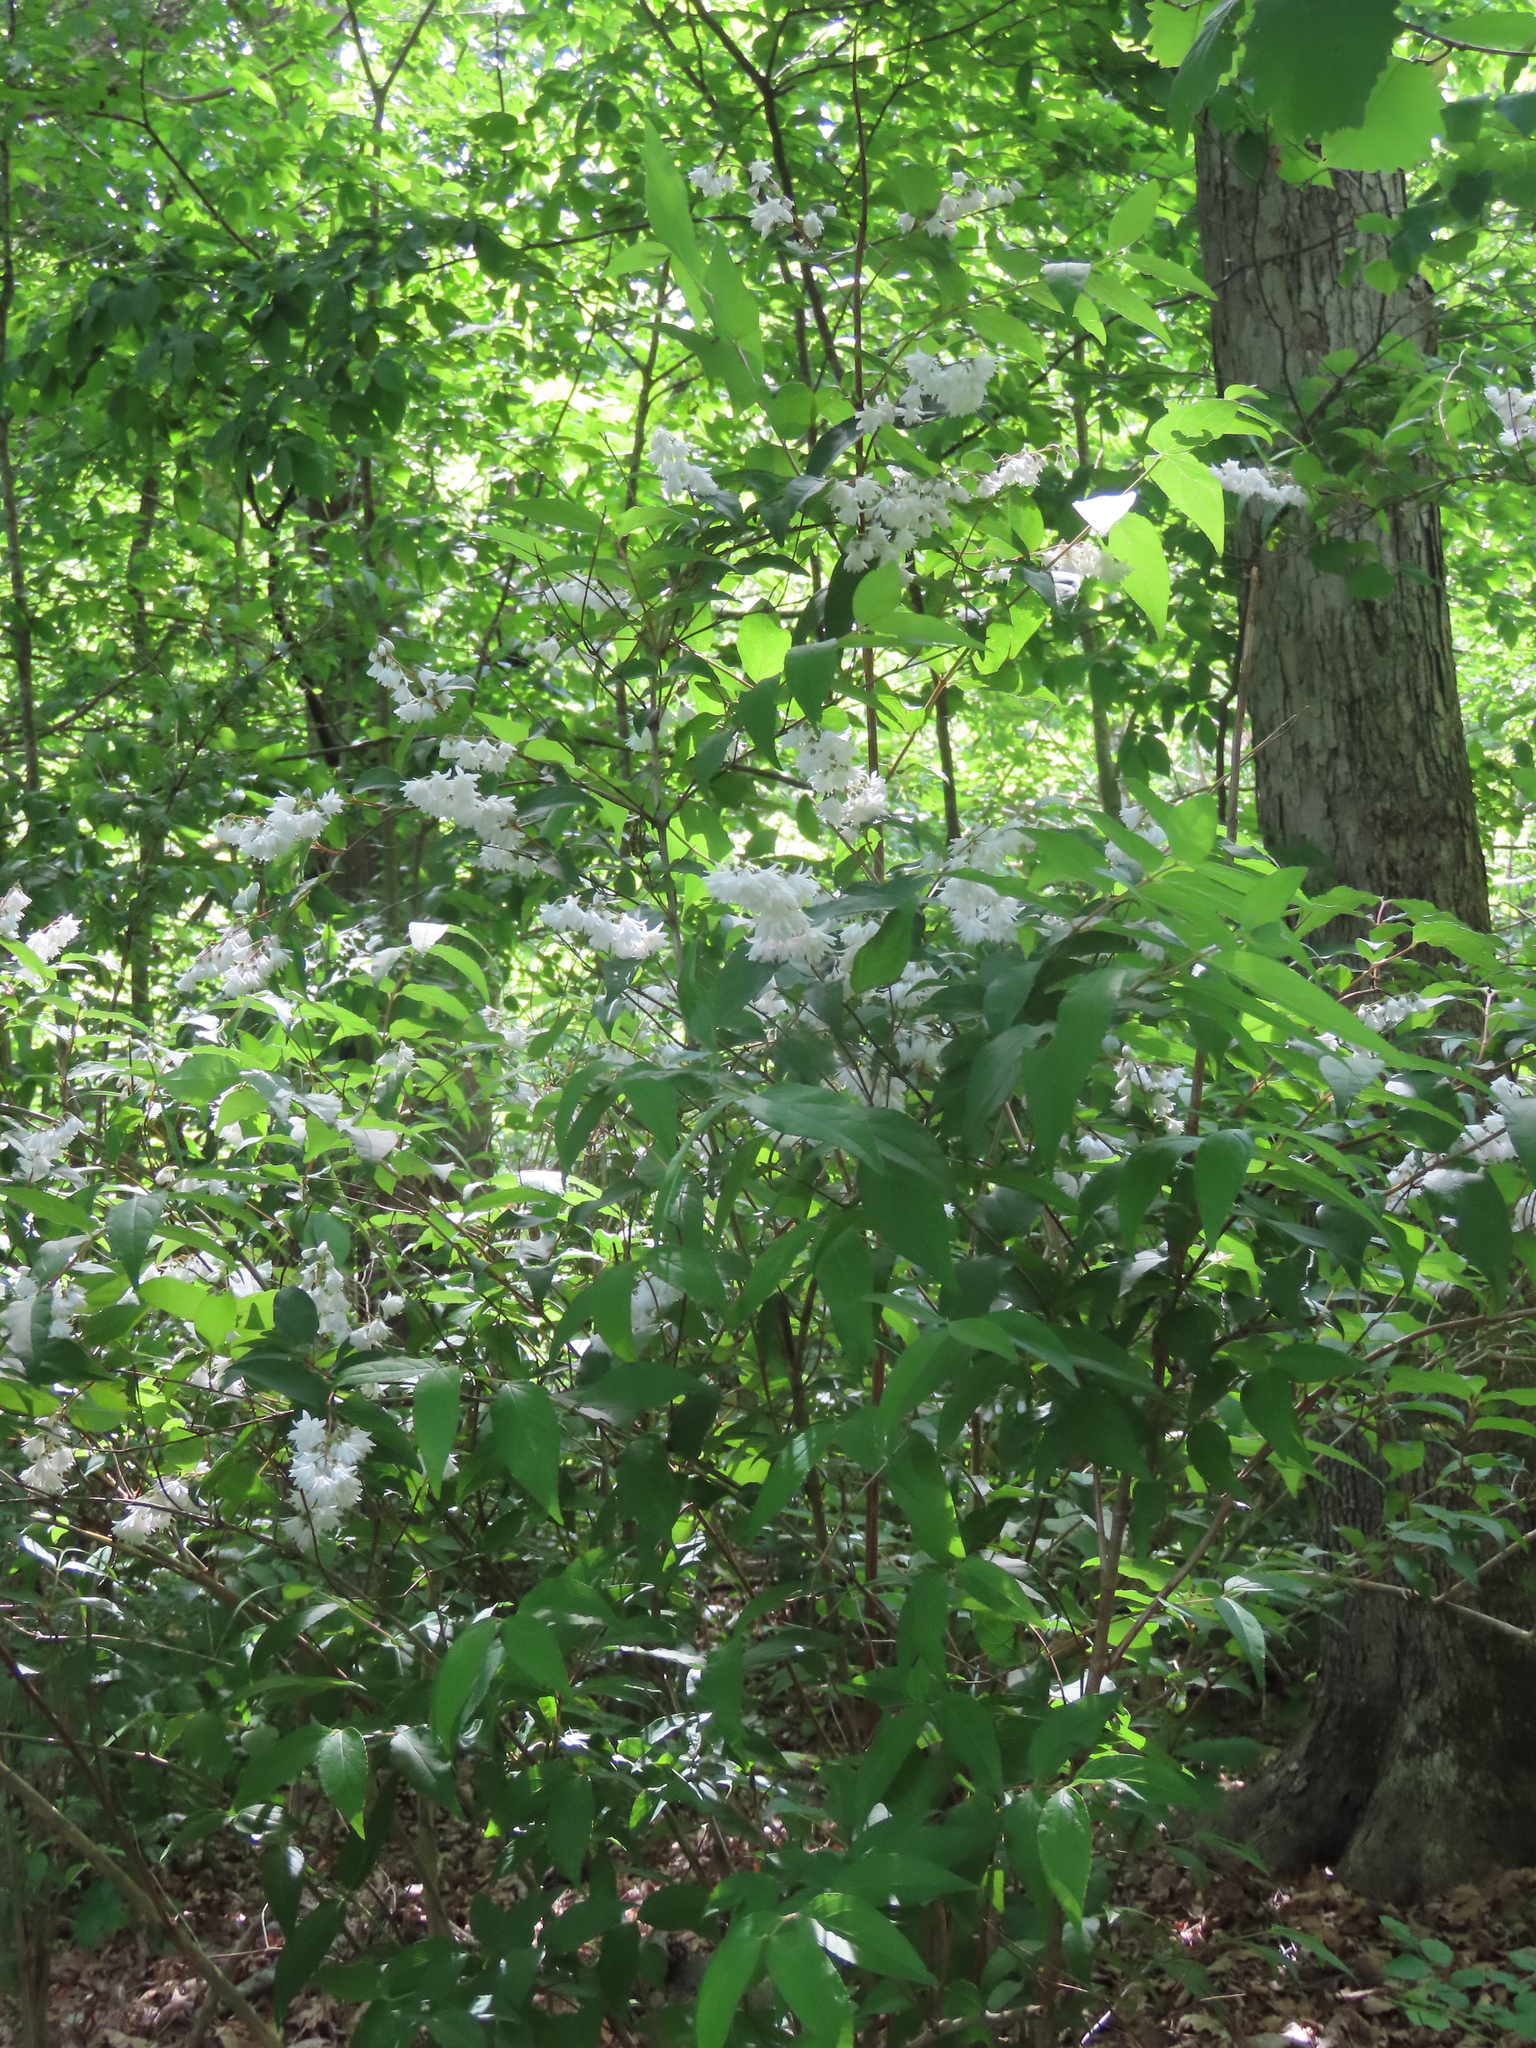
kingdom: Plantae
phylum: Tracheophyta
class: Magnoliopsida
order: Cornales
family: Hydrangeaceae
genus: Deutzia
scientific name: Deutzia crenata
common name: Deutzia
